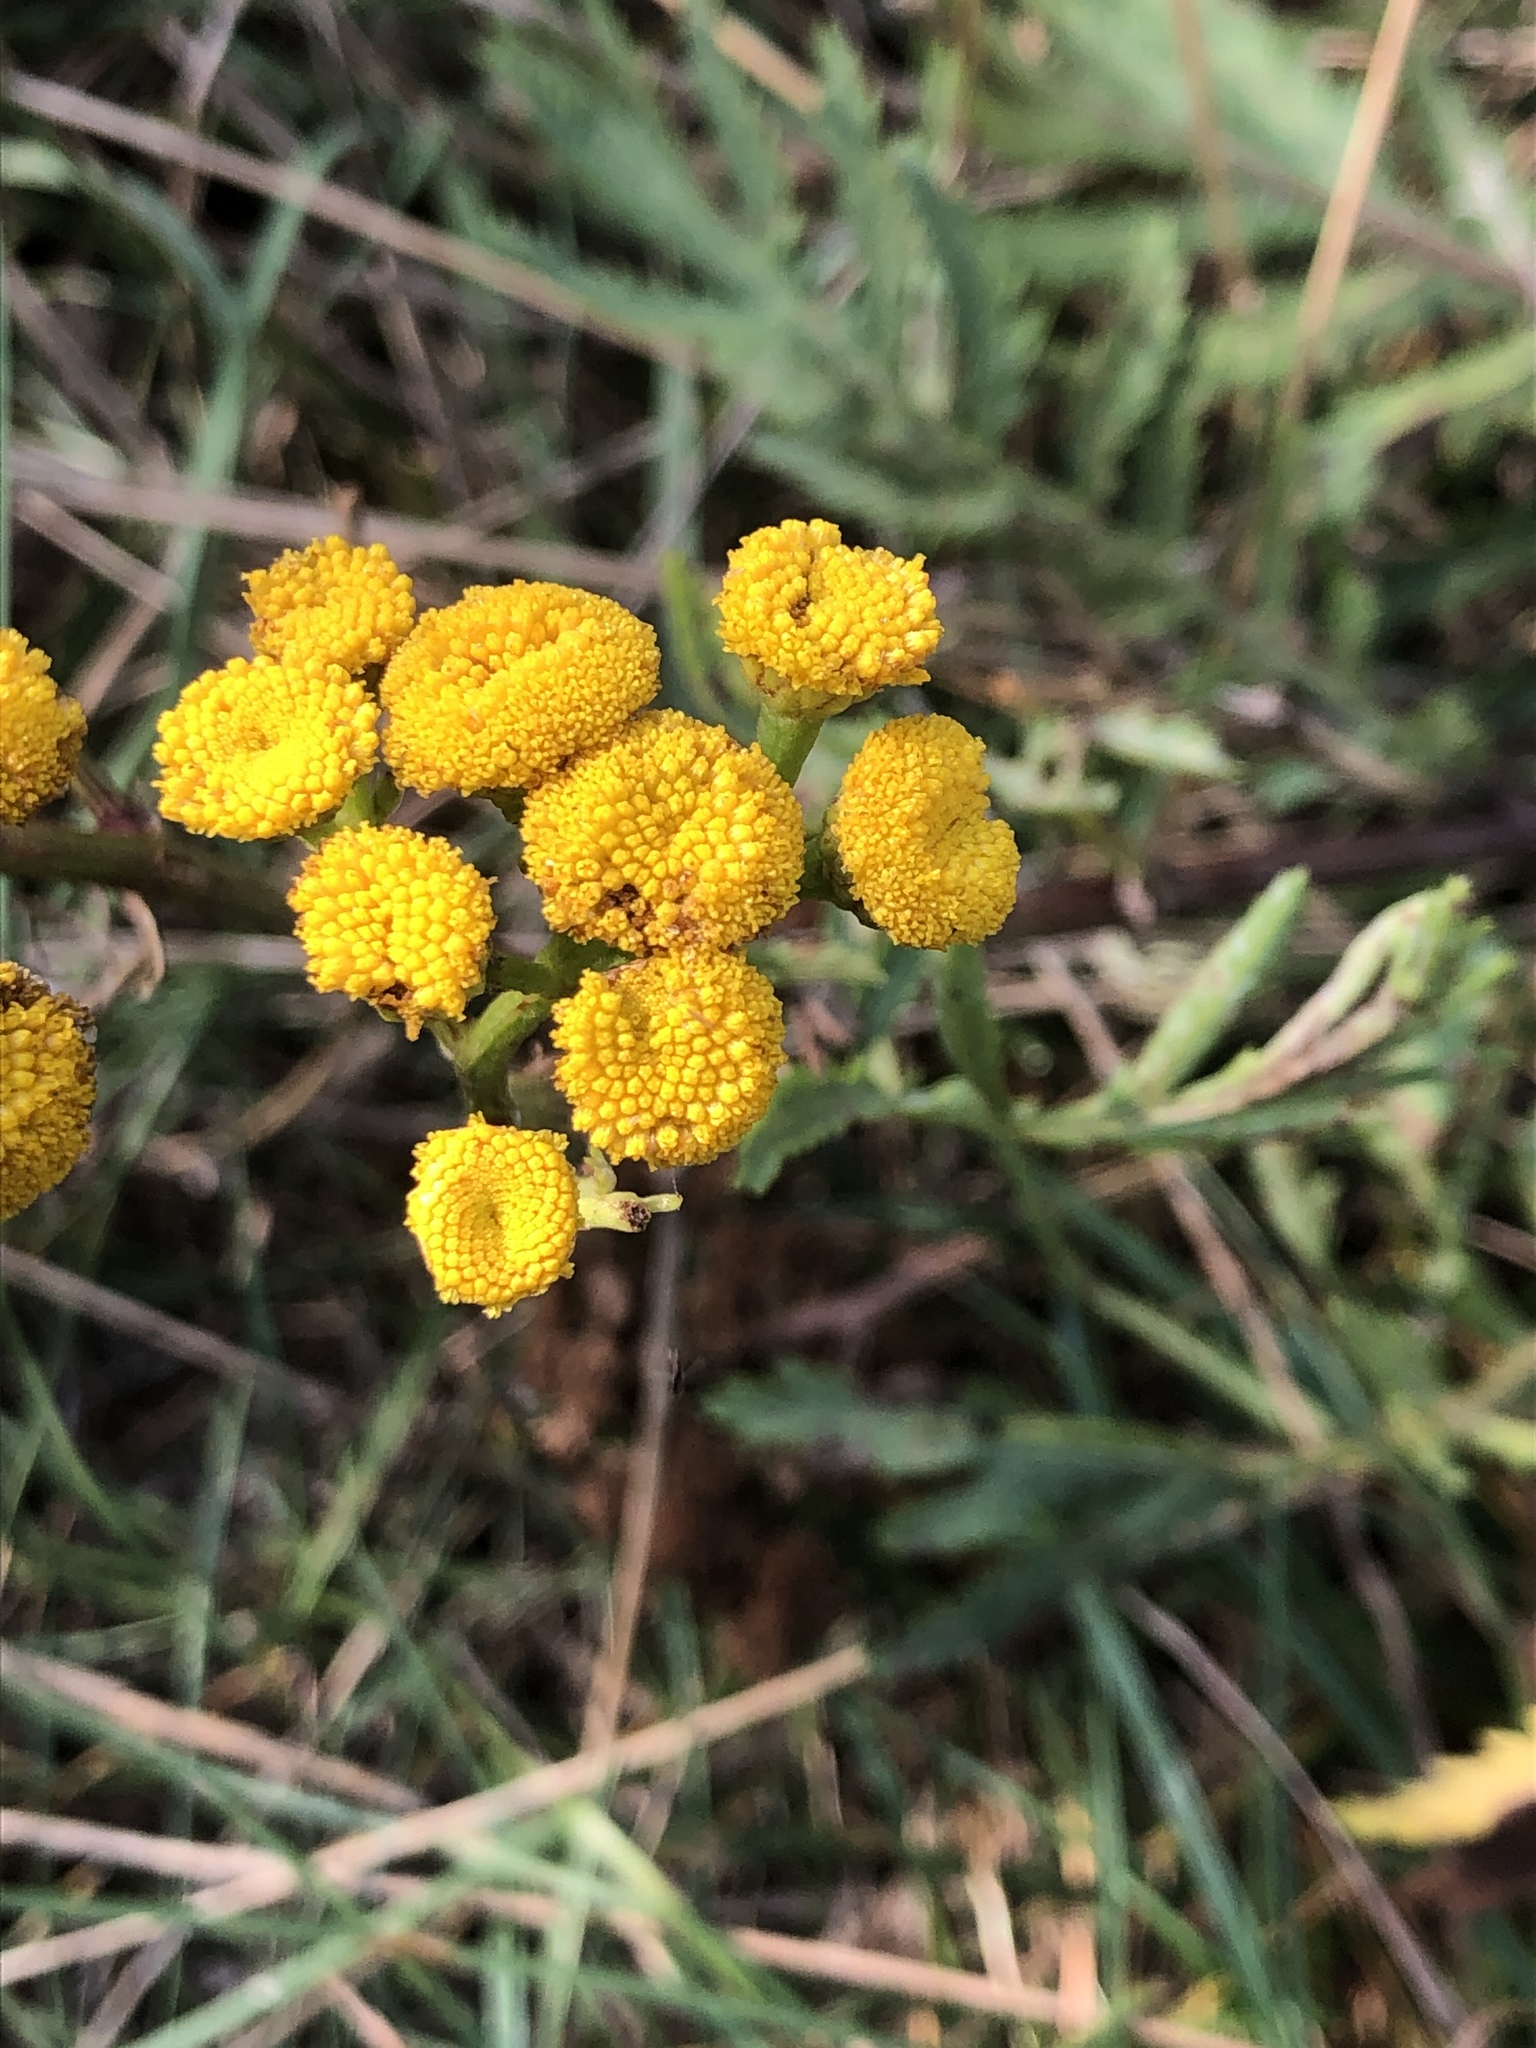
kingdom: Plantae
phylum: Tracheophyta
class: Magnoliopsida
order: Asterales
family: Asteraceae
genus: Tanacetum
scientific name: Tanacetum vulgare
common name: Common tansy
